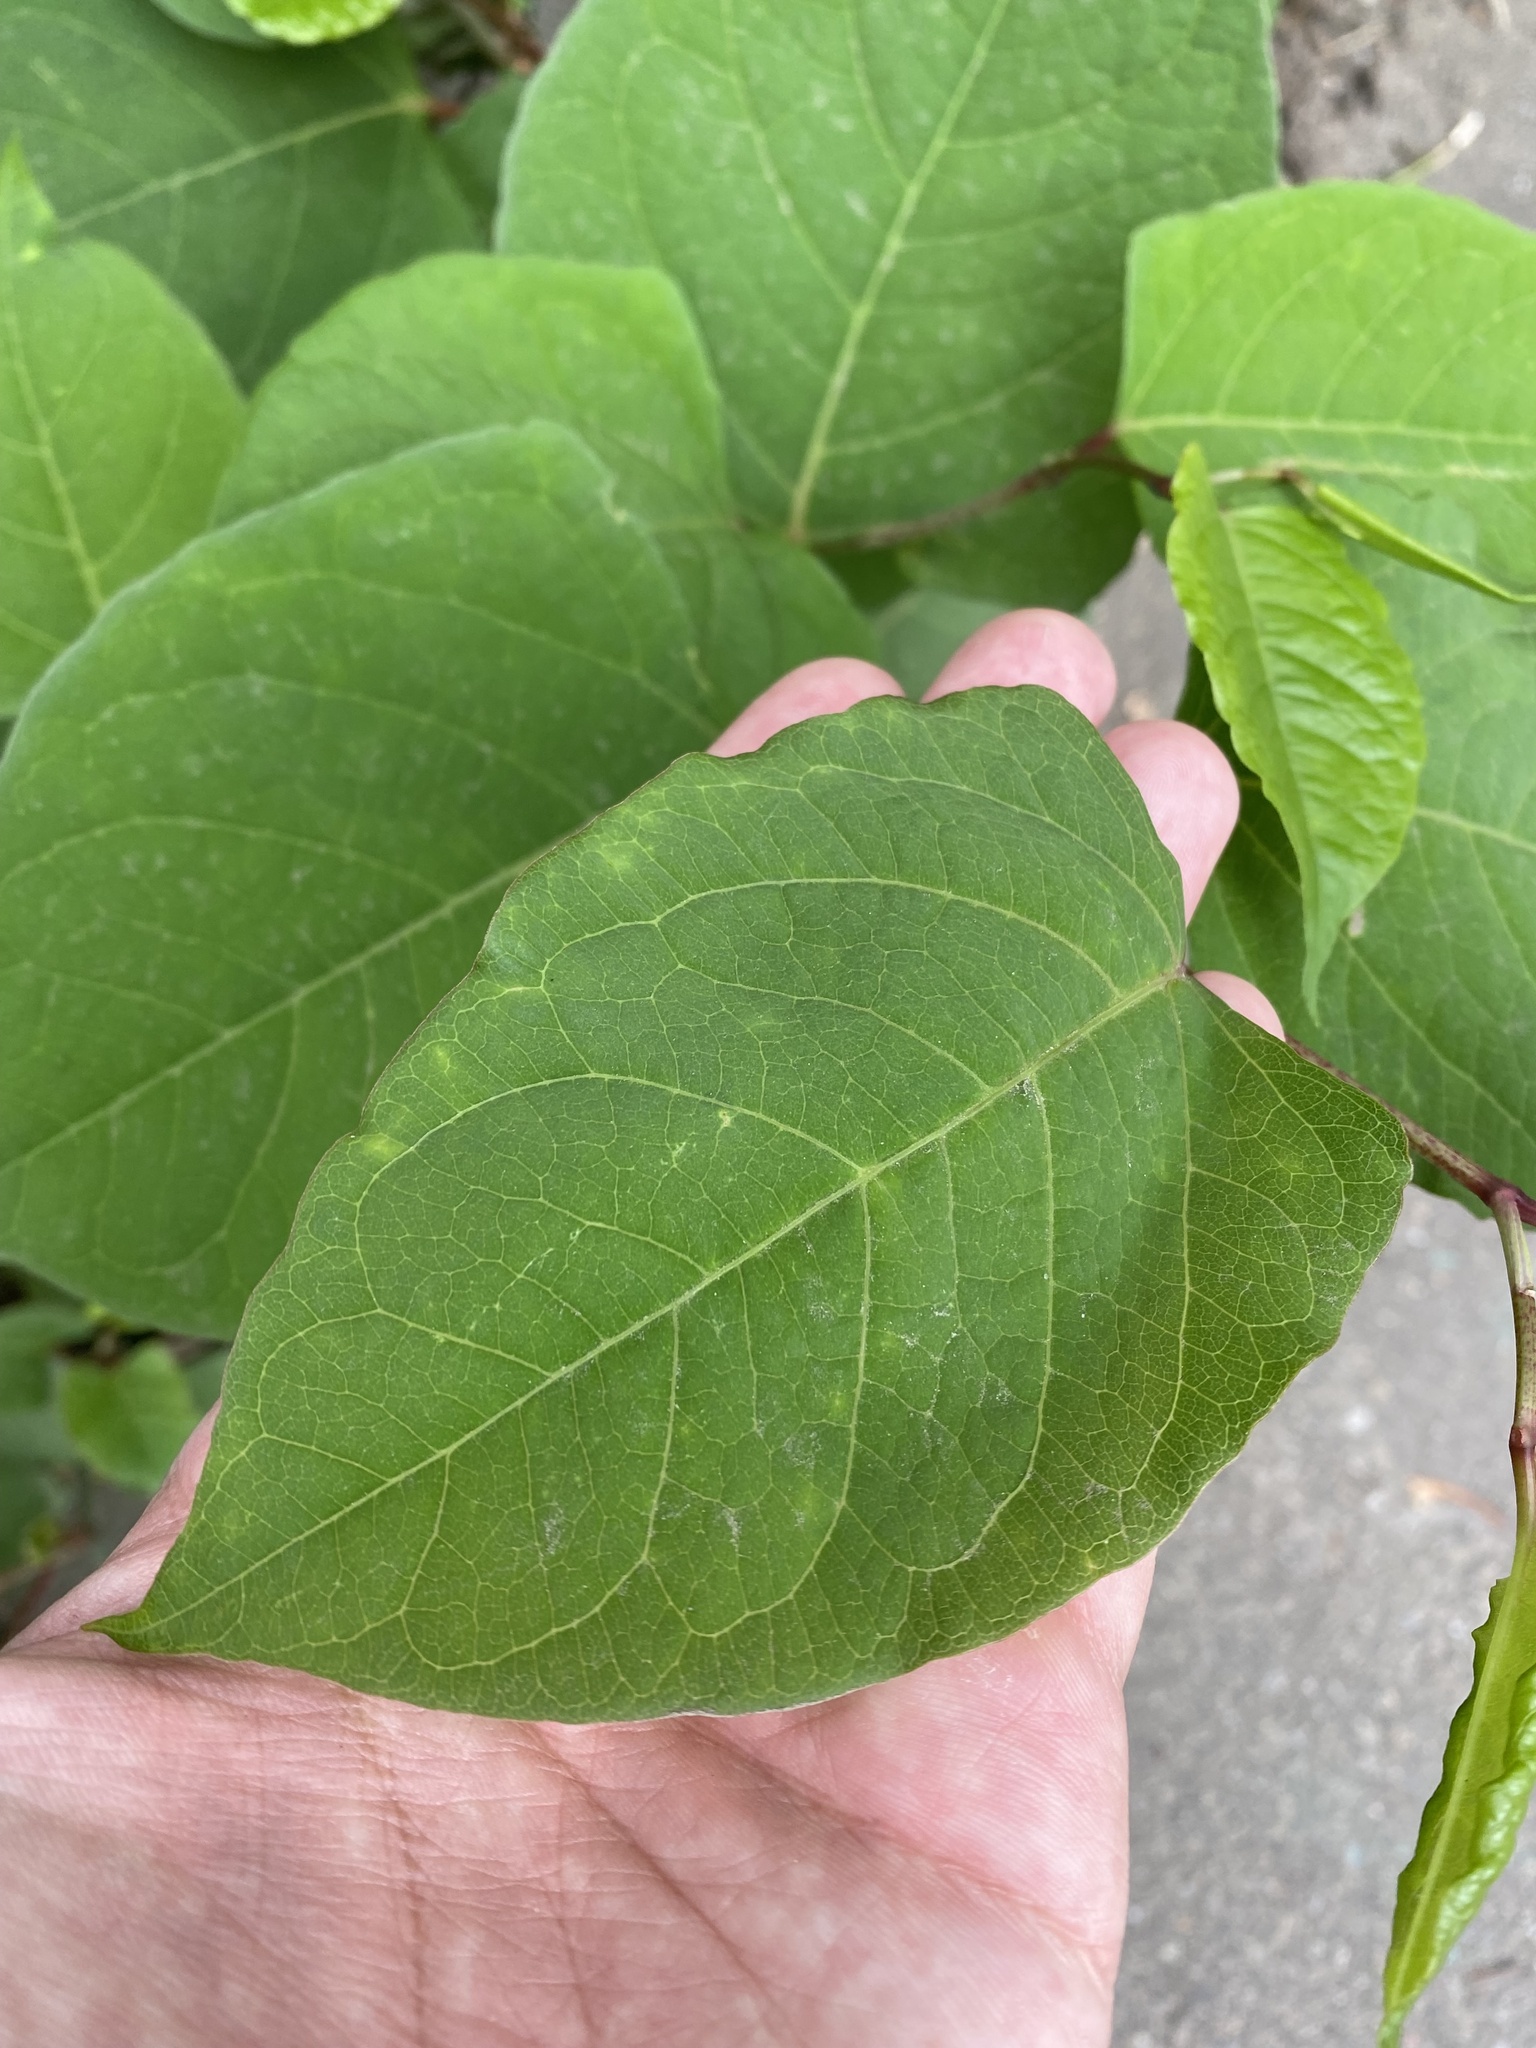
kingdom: Plantae
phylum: Tracheophyta
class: Magnoliopsida
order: Caryophyllales
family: Polygonaceae
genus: Reynoutria
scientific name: Reynoutria japonica
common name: Japanese knotweed
